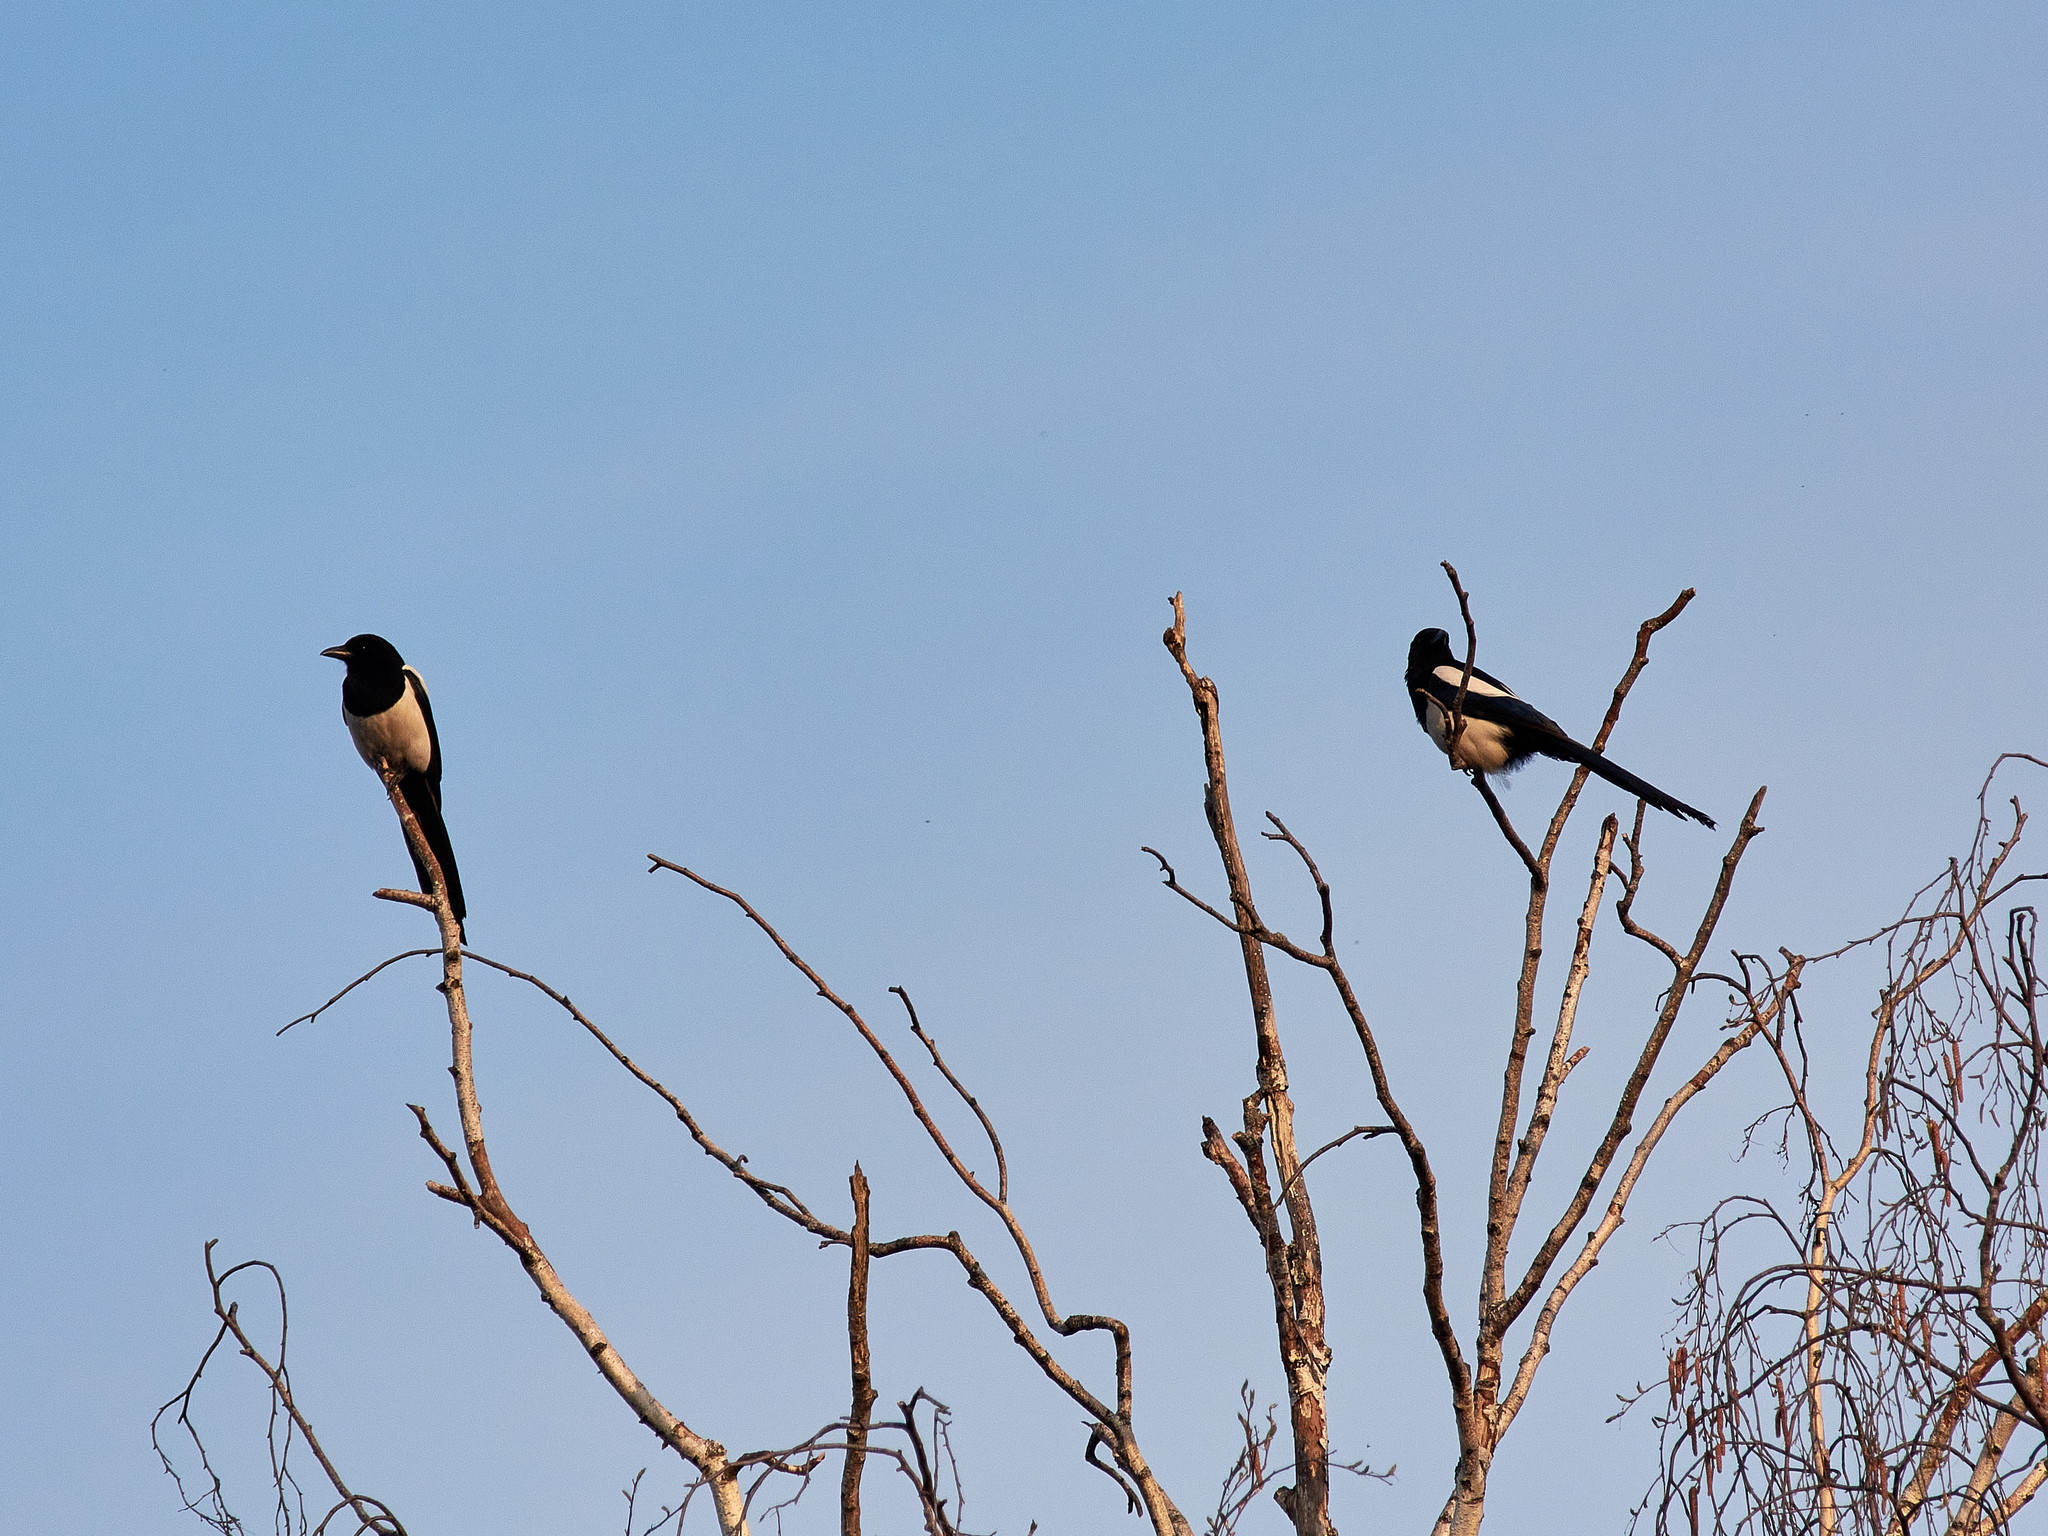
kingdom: Animalia
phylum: Chordata
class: Aves
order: Passeriformes
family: Corvidae
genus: Pica
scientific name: Pica pica
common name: Eurasian magpie
